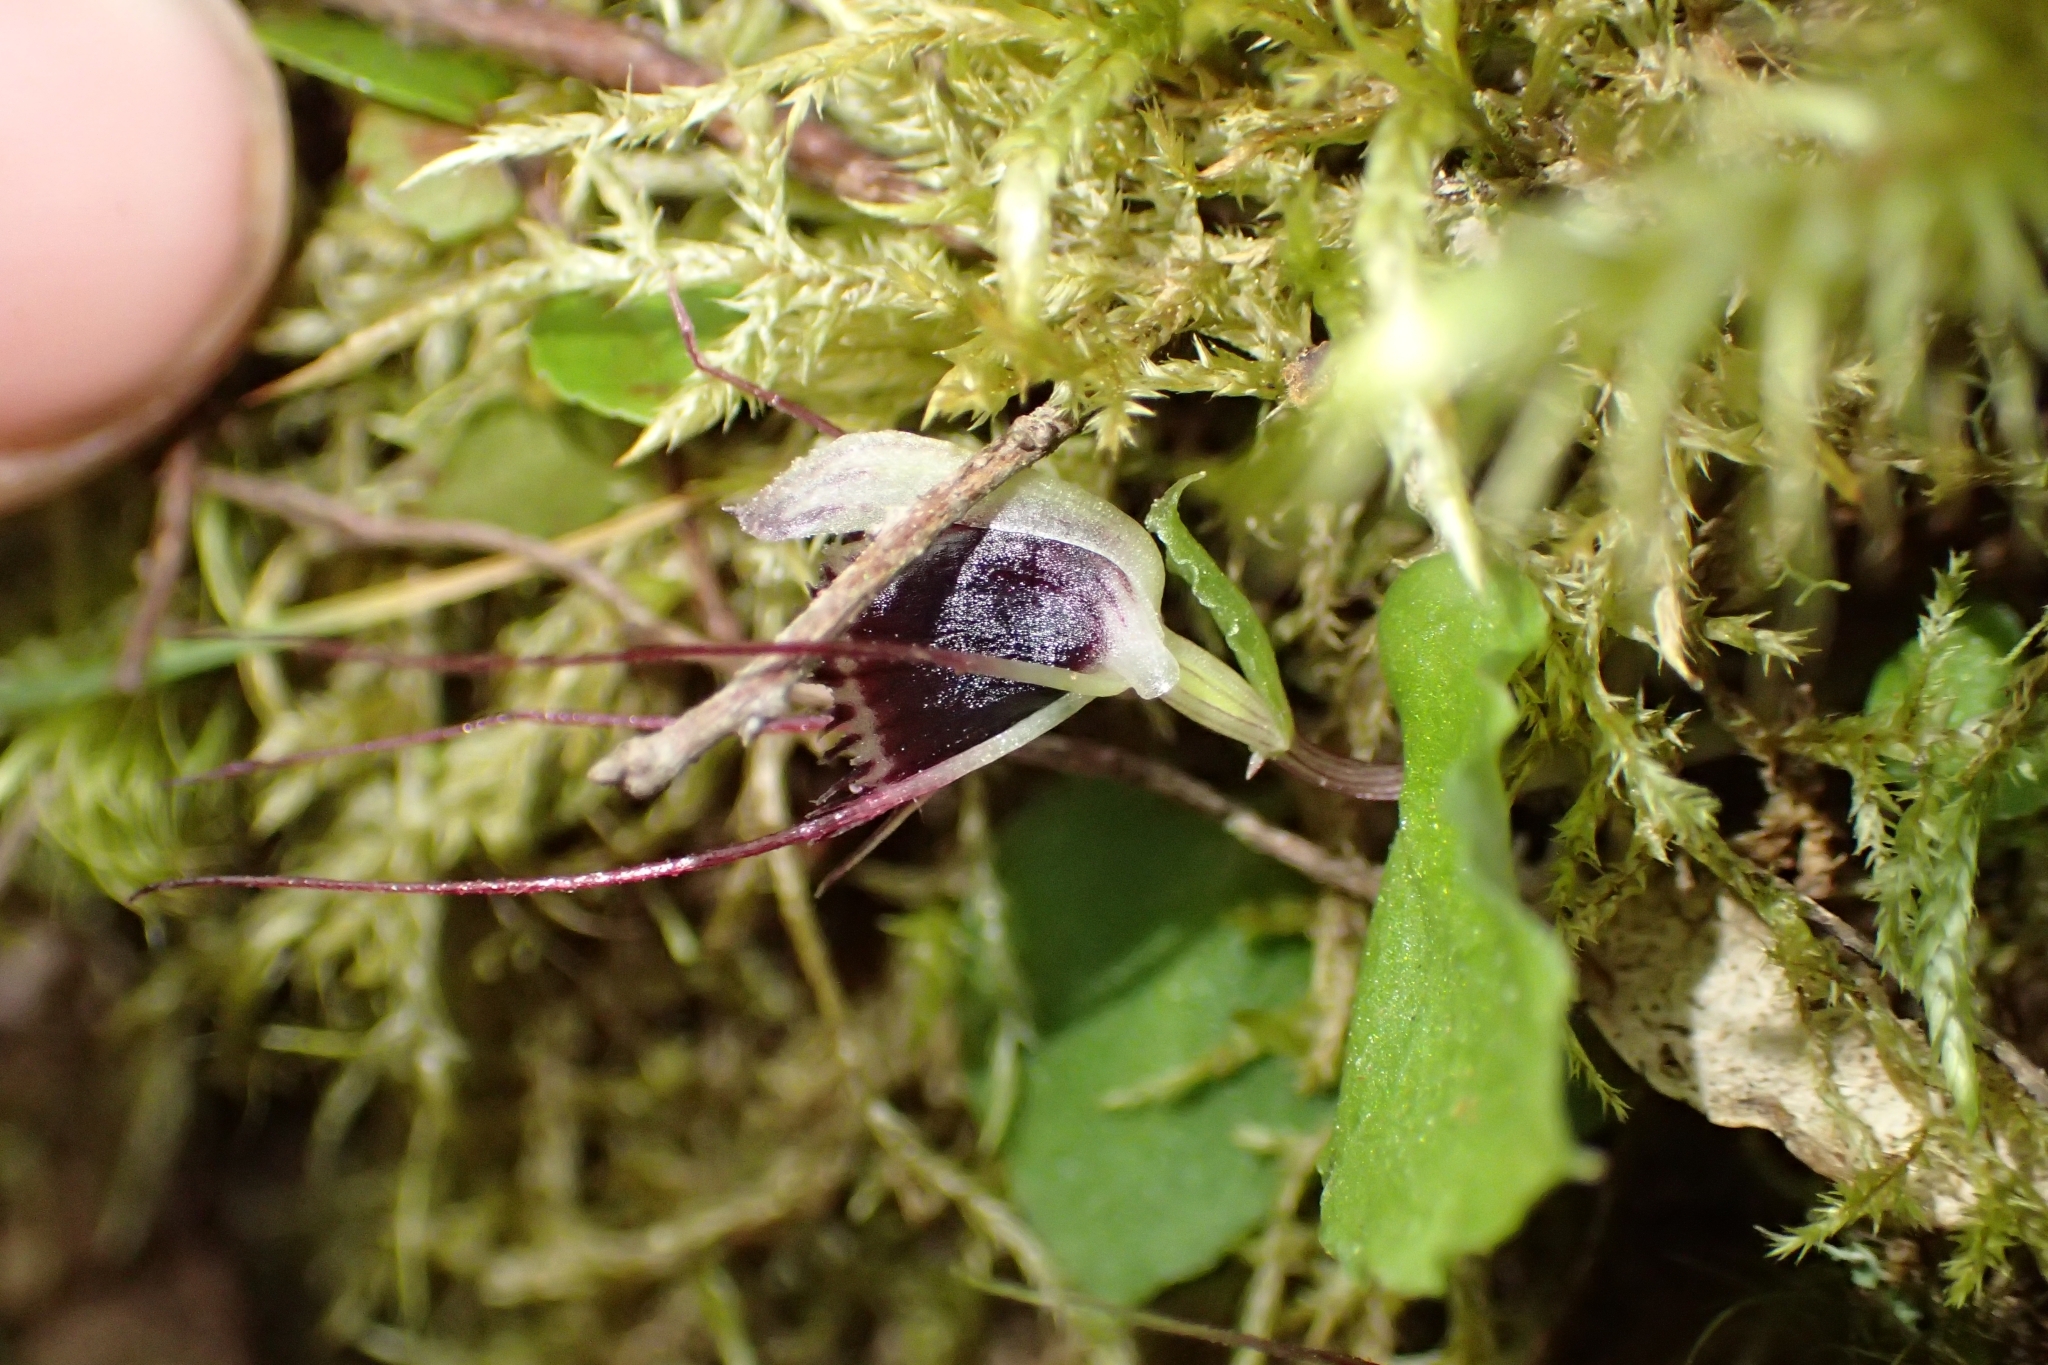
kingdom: Plantae
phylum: Tracheophyta
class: Liliopsida
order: Asparagales
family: Orchidaceae
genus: Corybas
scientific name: Corybas oblongus
